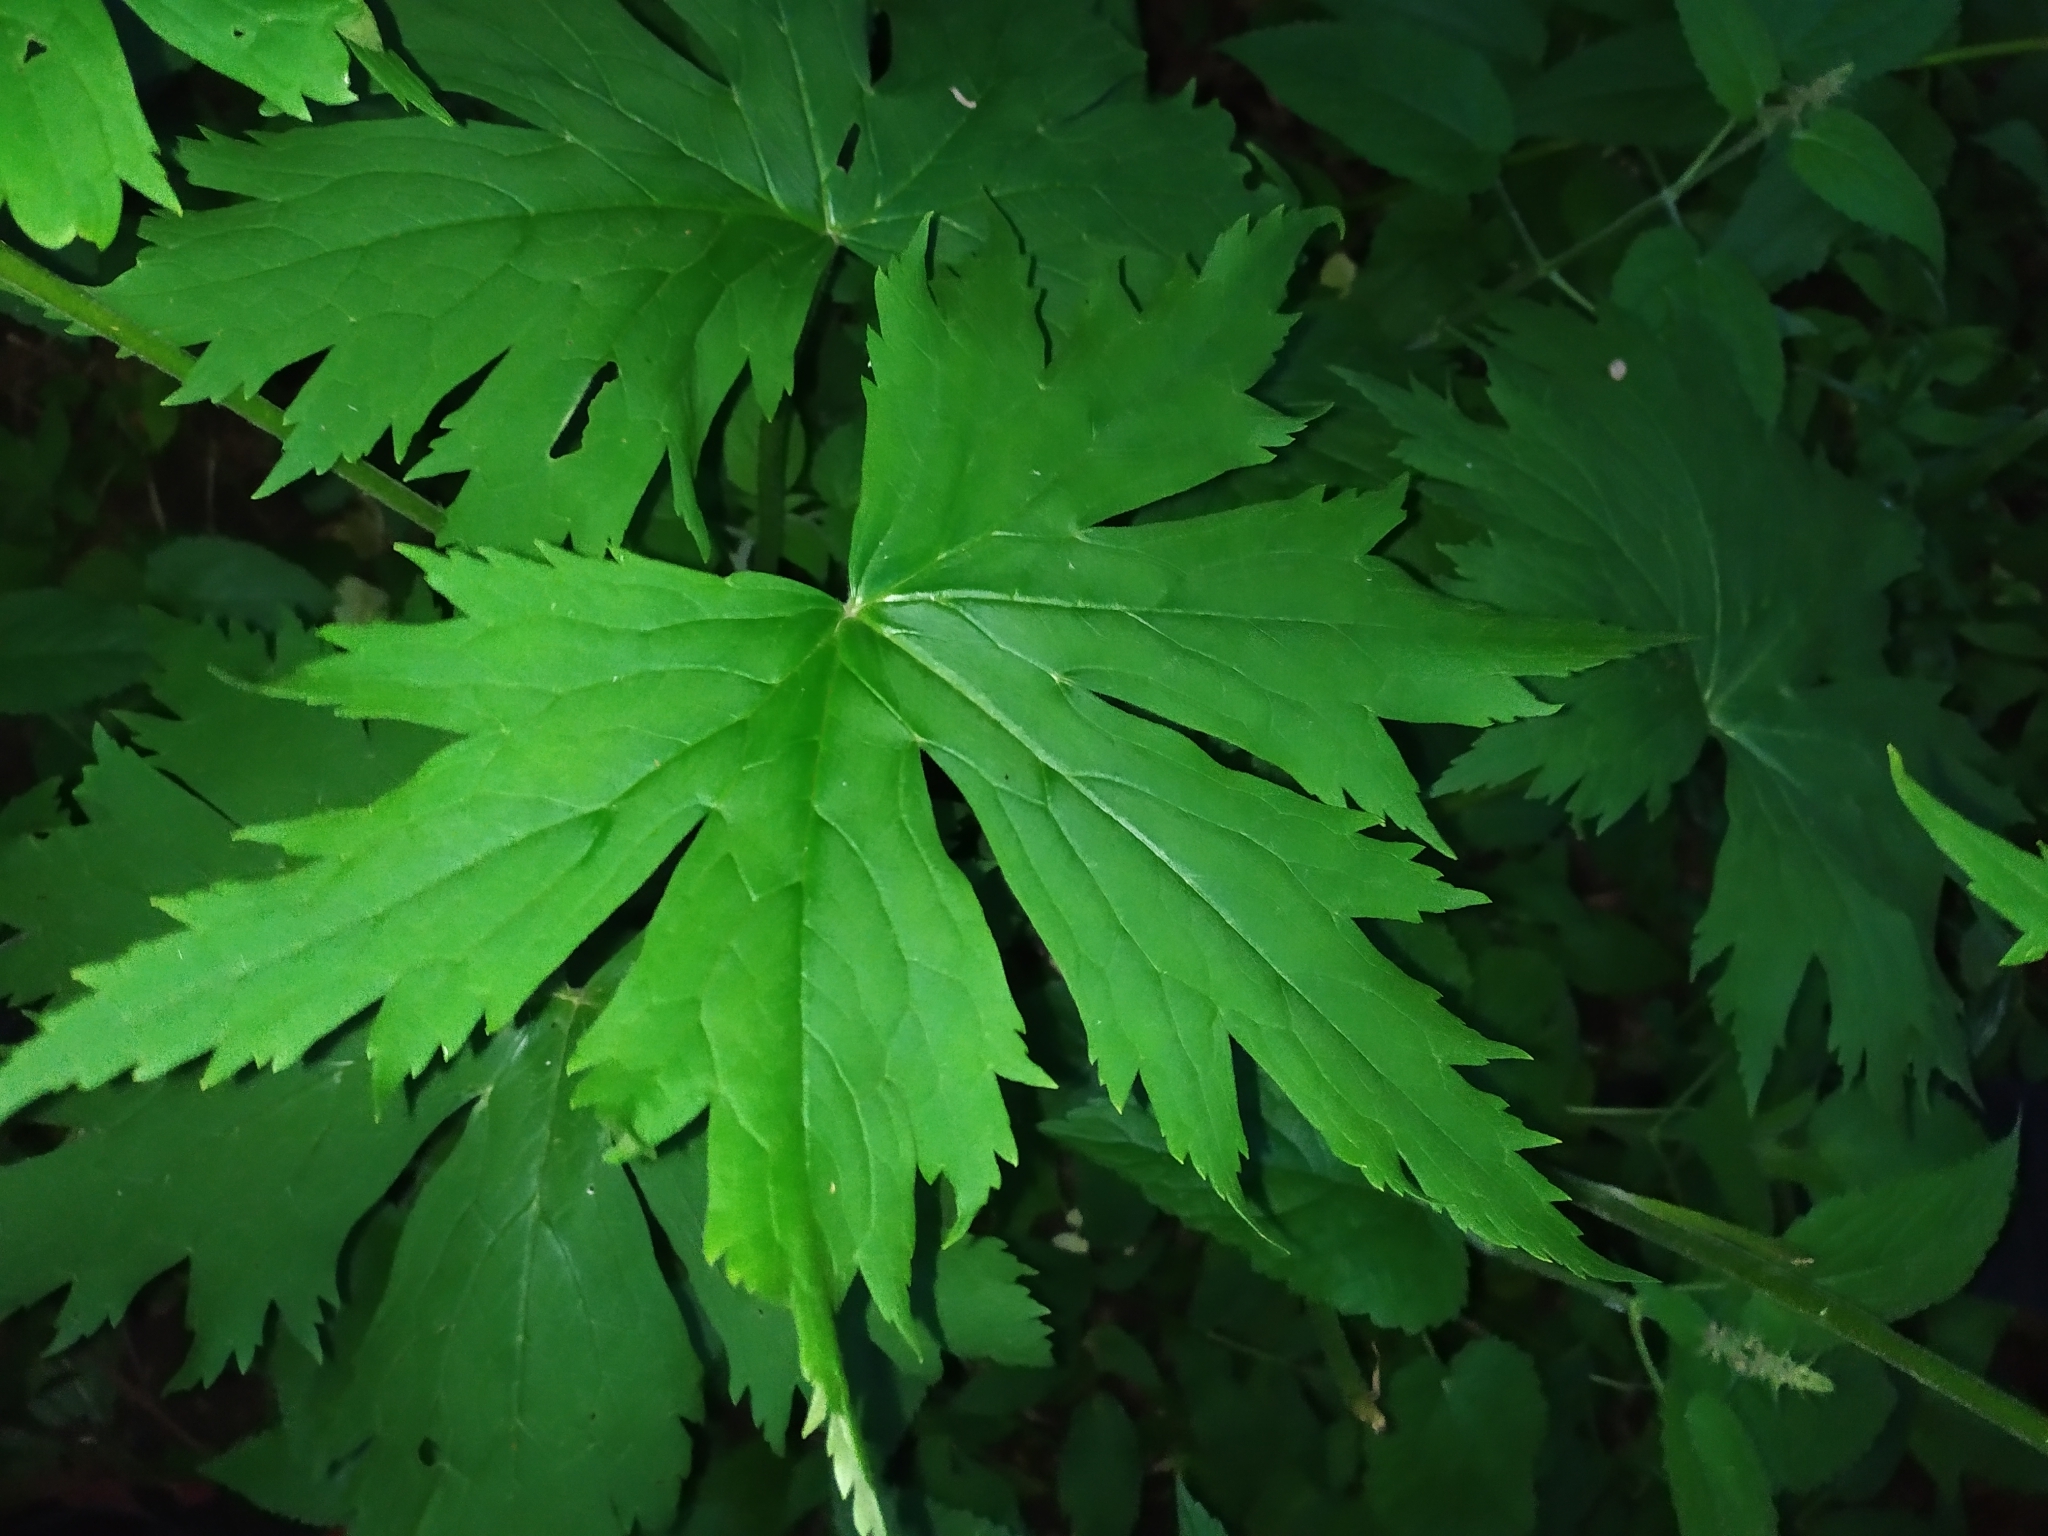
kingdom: Plantae
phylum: Tracheophyta
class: Magnoliopsida
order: Ranunculales
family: Ranunculaceae
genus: Aconitum
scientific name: Aconitum septentrionale
